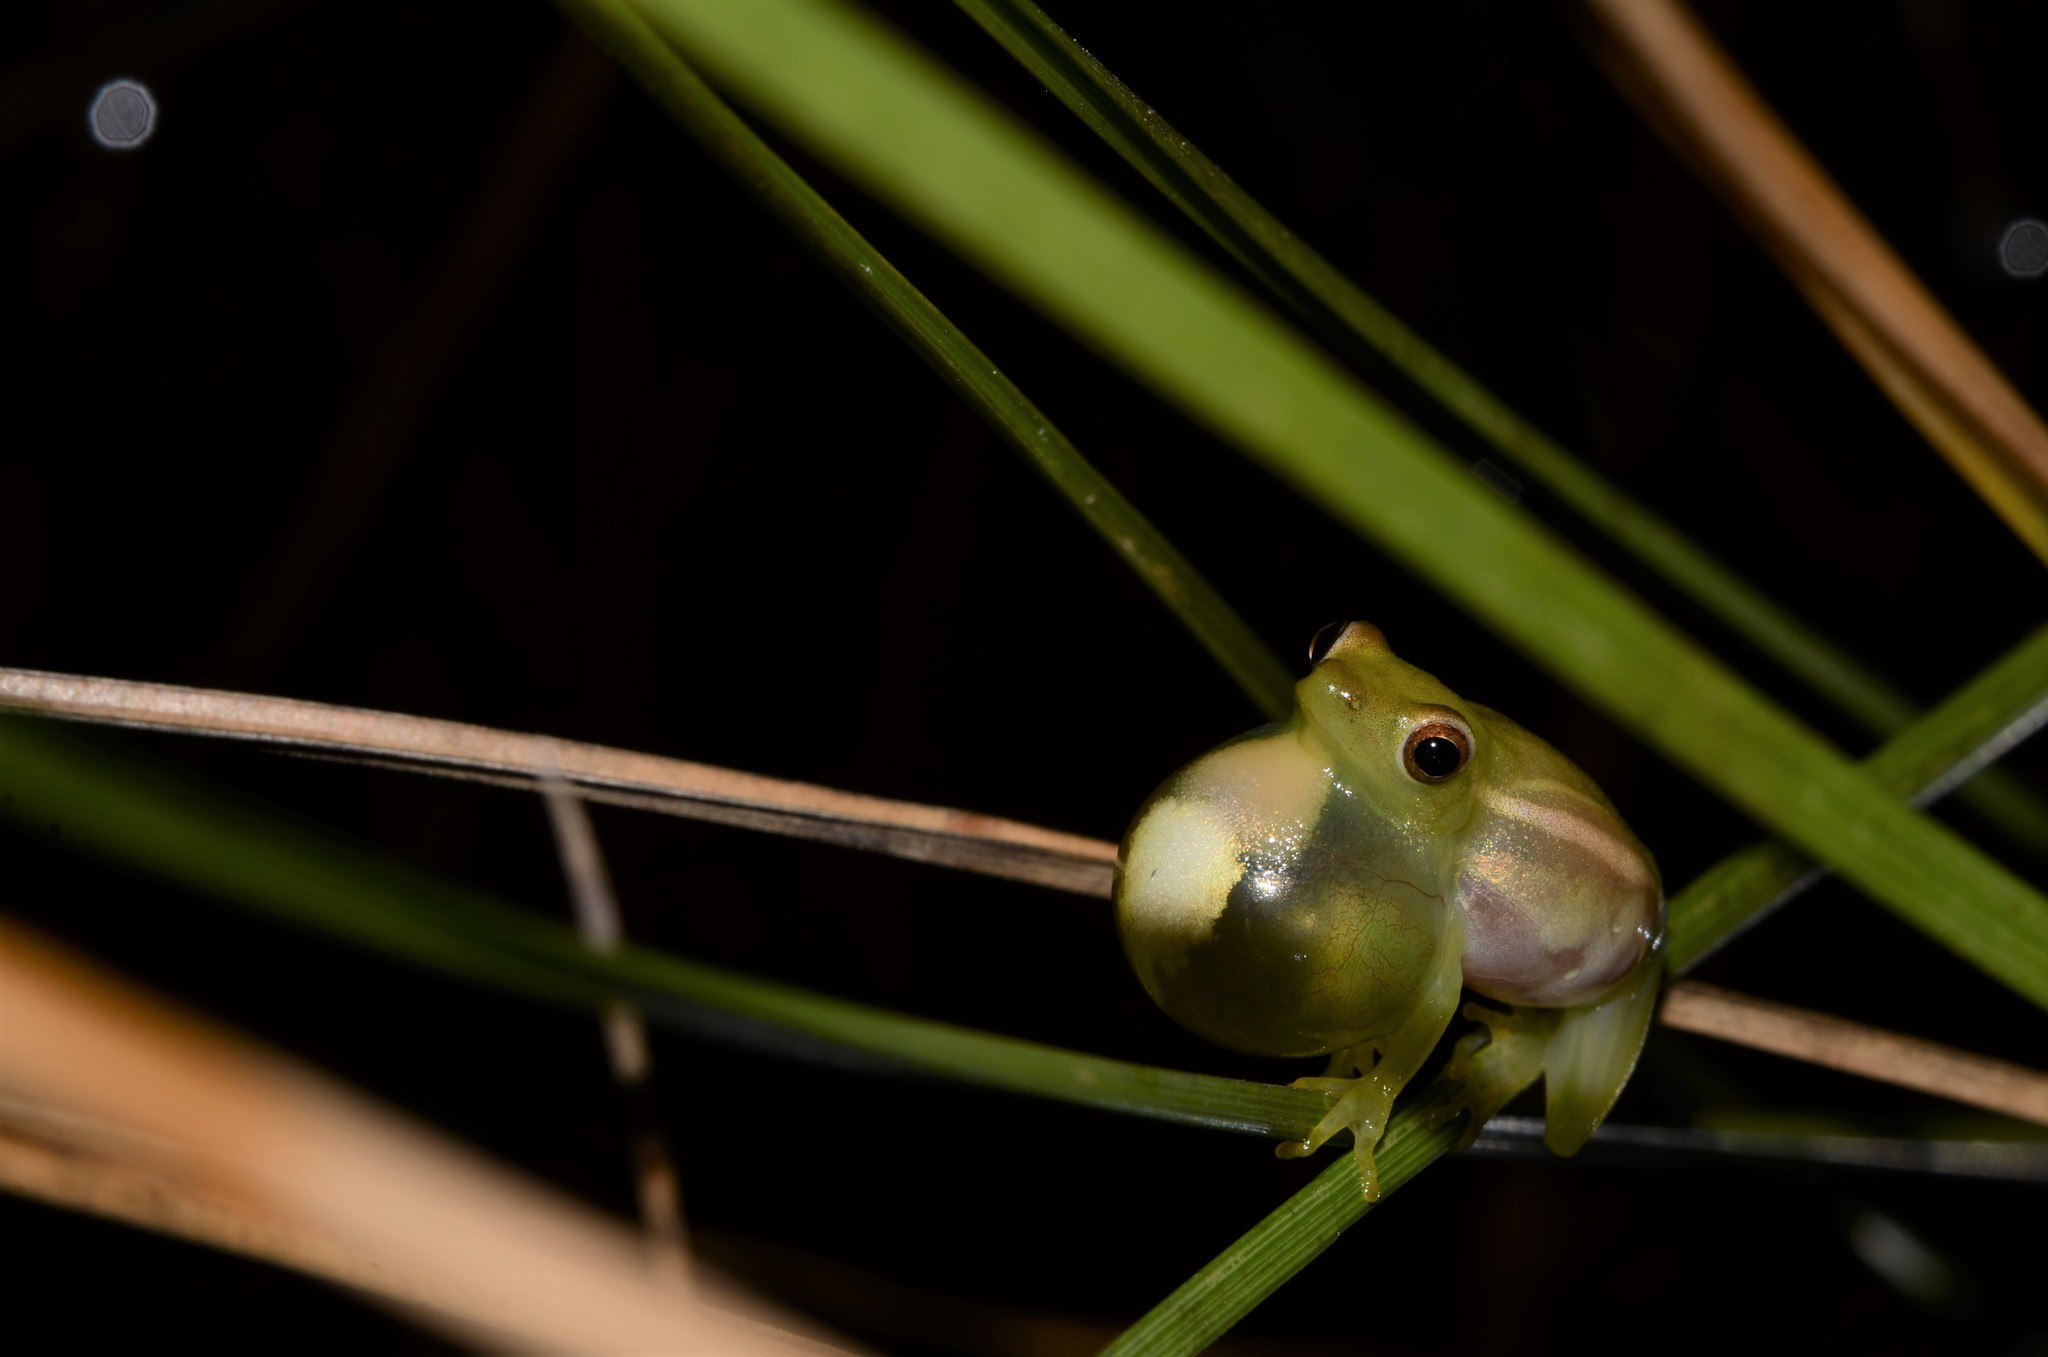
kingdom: Animalia
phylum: Chordata
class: Amphibia
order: Anura
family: Hyperoliidae
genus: Hyperolius
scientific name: Hyperolius microps
